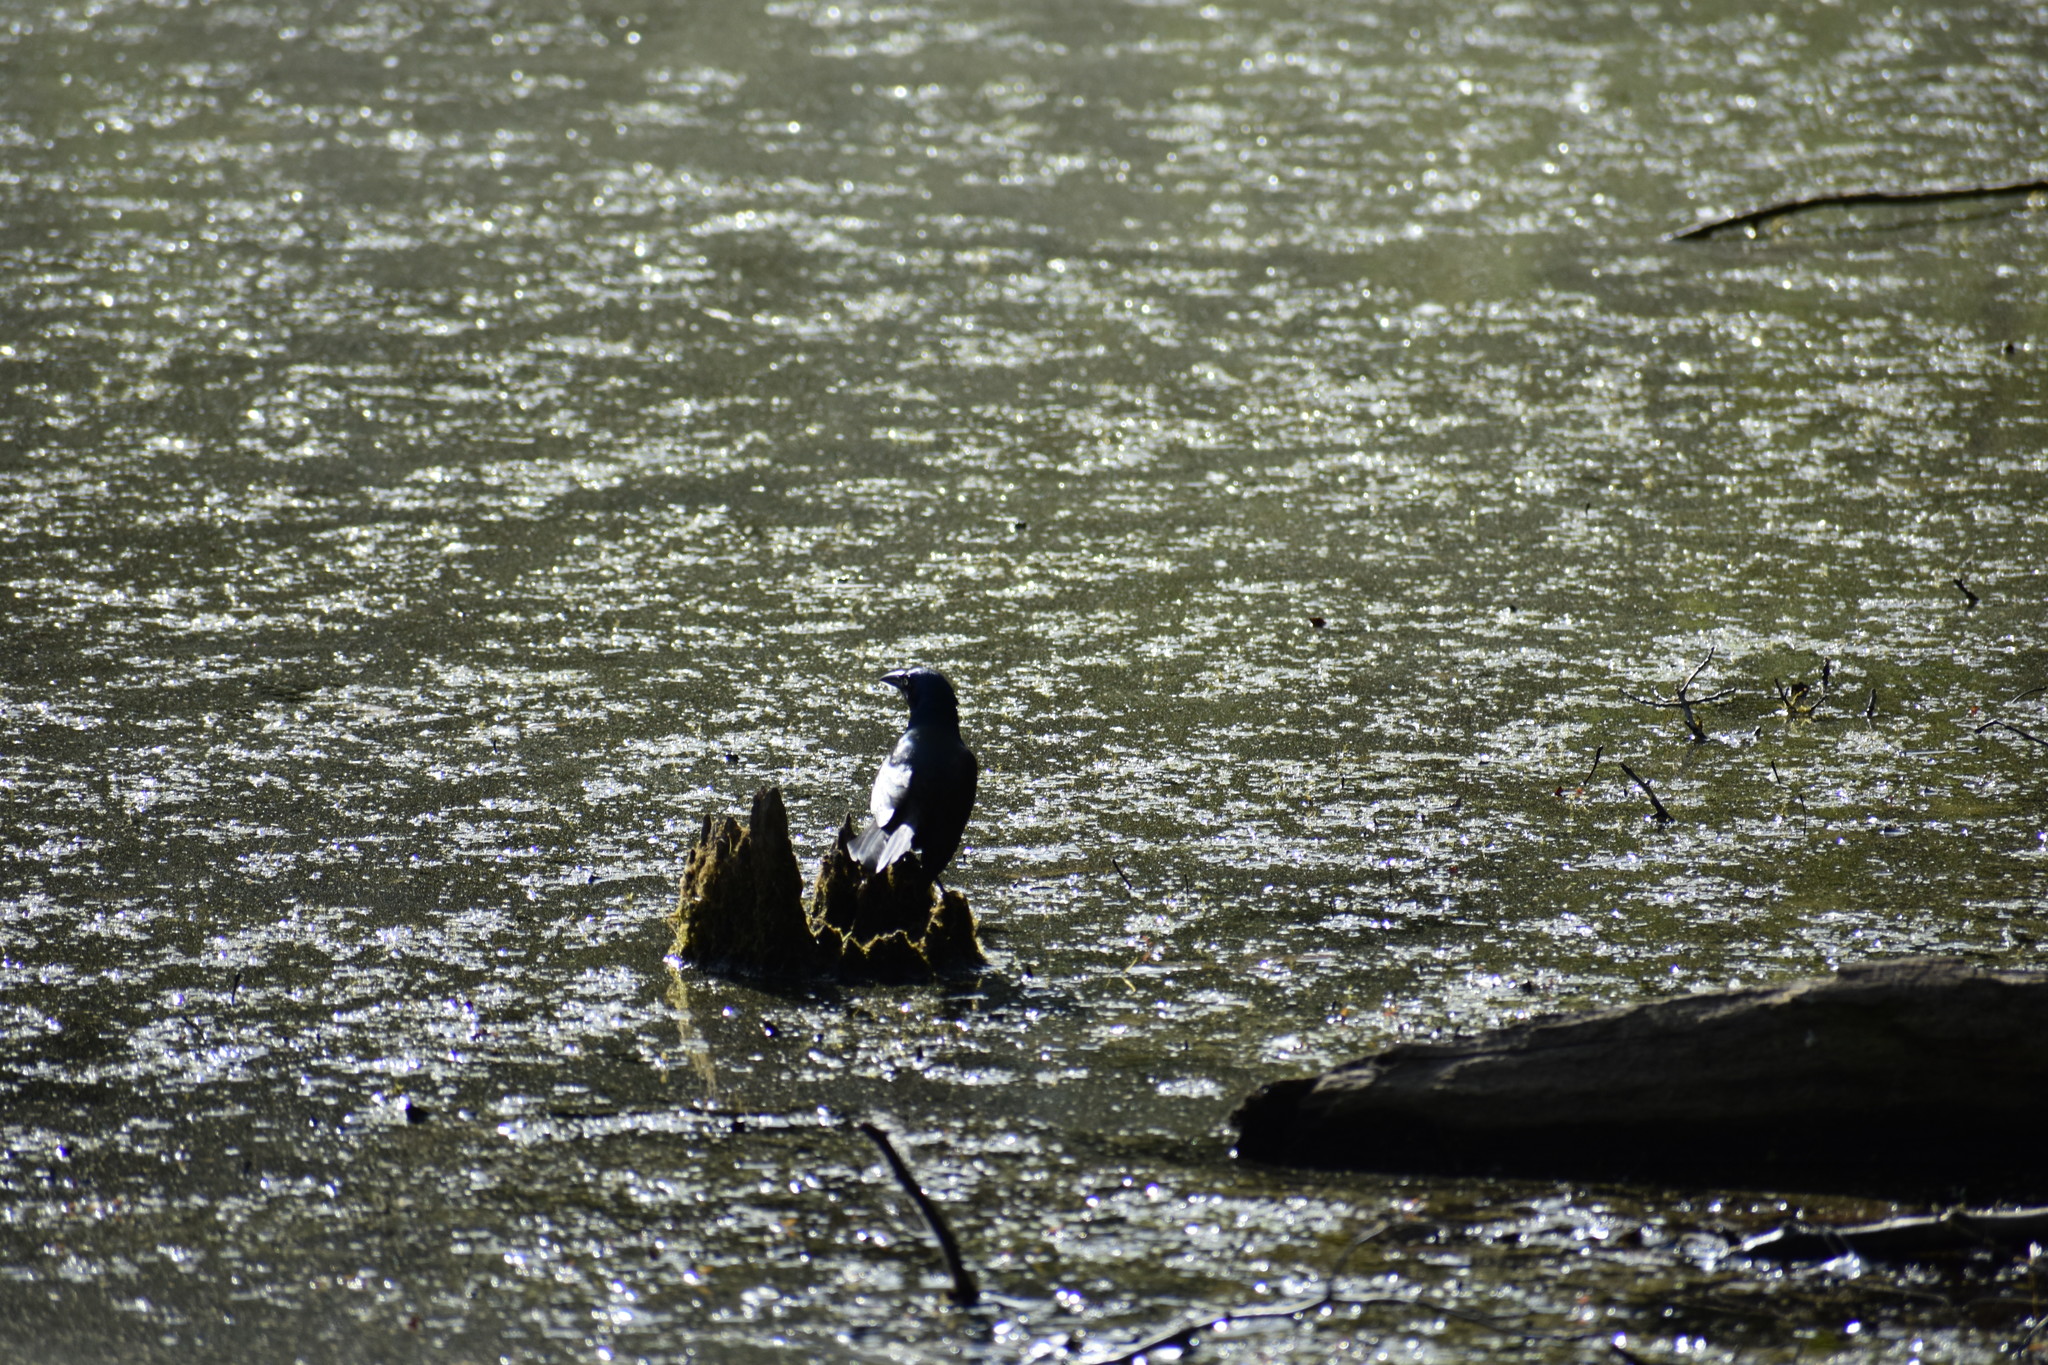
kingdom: Animalia
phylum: Chordata
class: Aves
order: Passeriformes
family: Icteridae
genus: Quiscalus
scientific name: Quiscalus quiscula
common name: Common grackle
